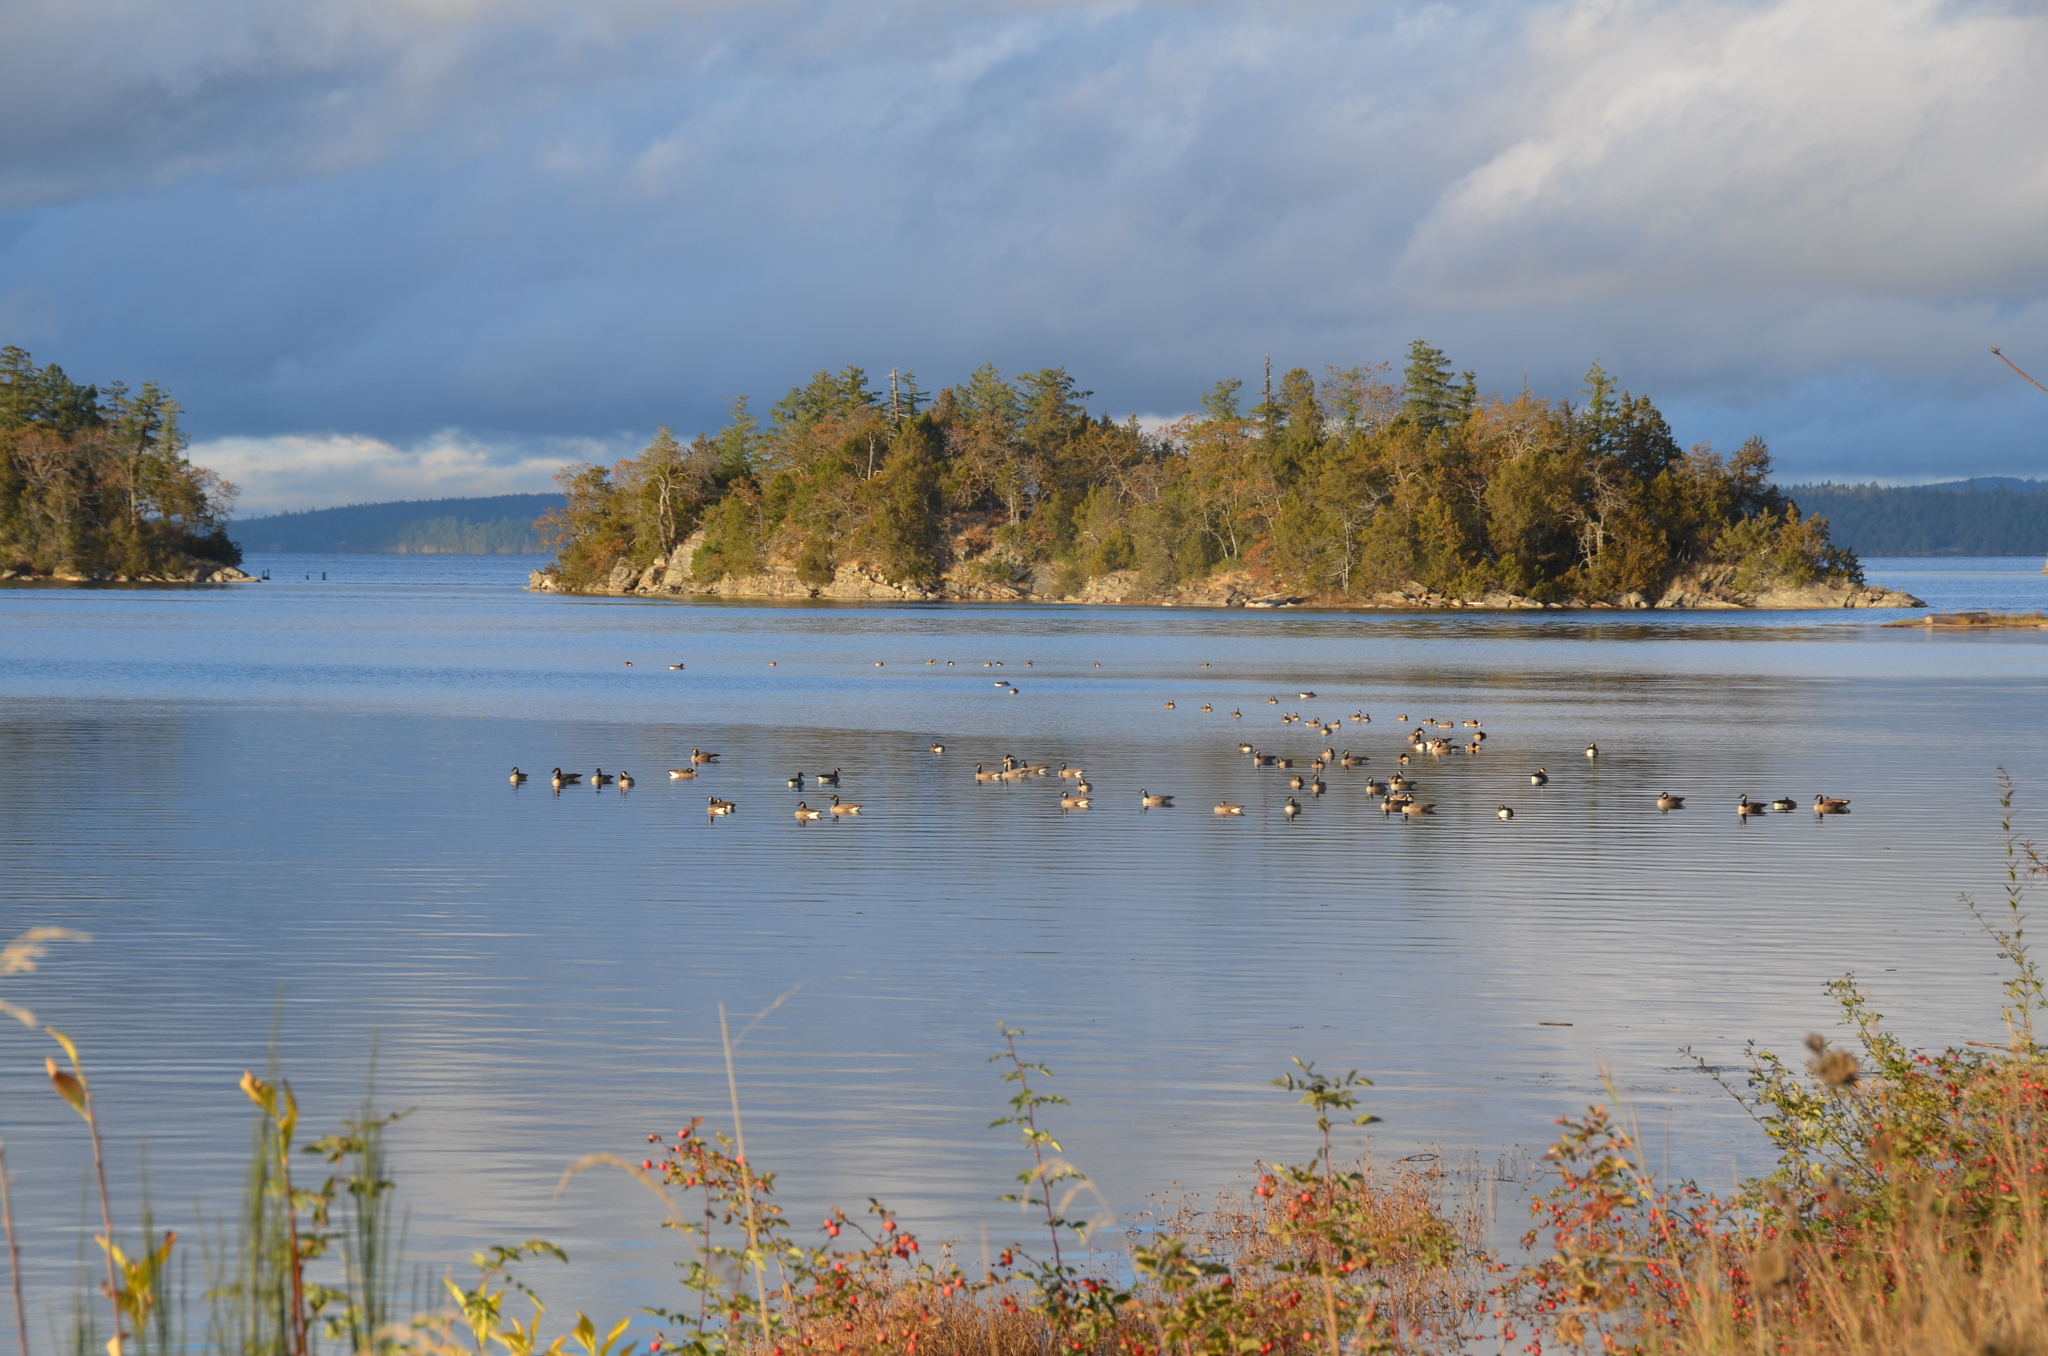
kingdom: Animalia
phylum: Chordata
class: Aves
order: Anseriformes
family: Anatidae
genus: Branta
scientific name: Branta hutchinsii
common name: Cackling goose
